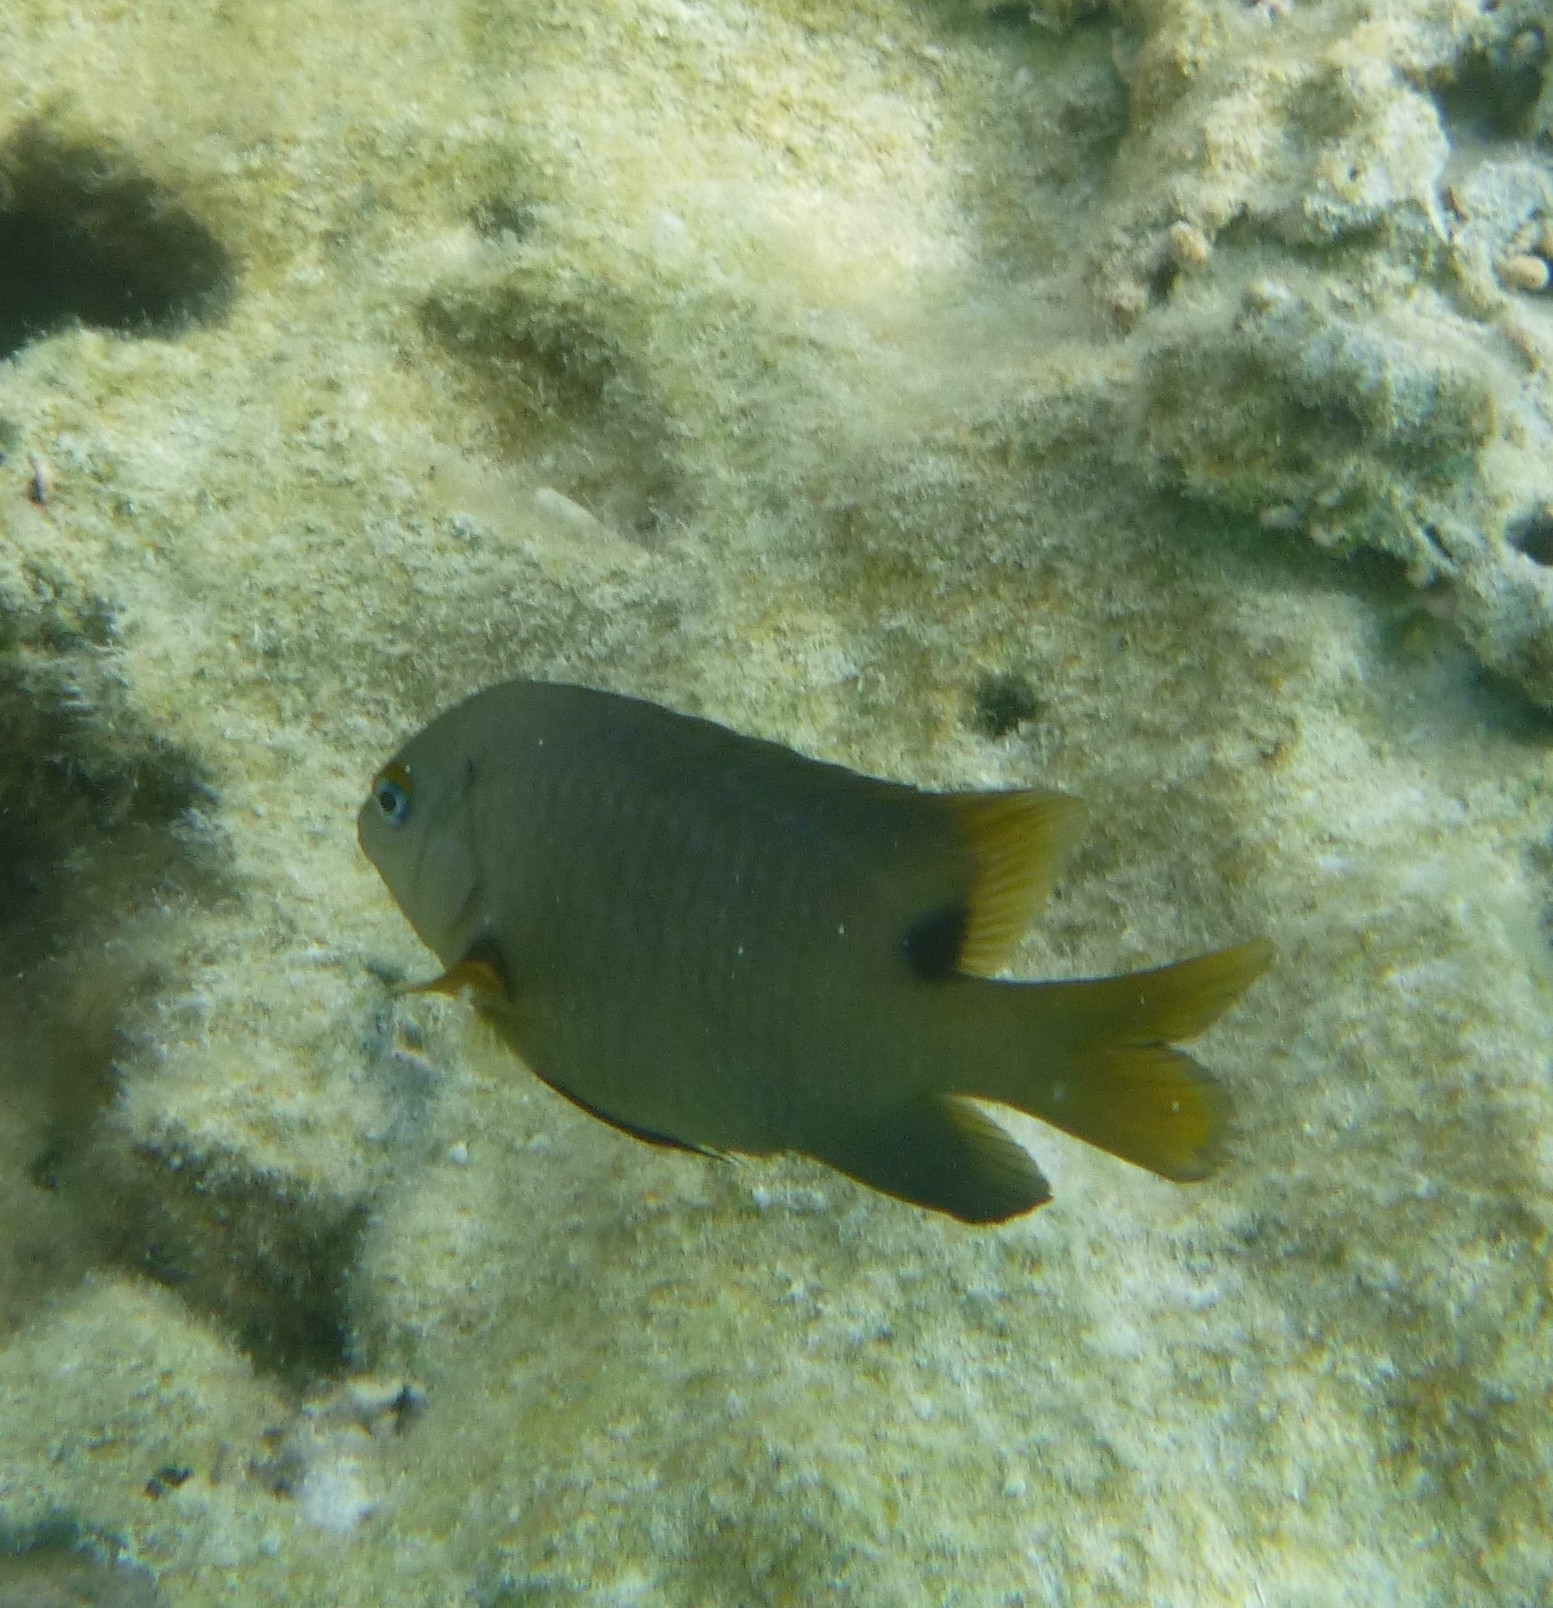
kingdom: Animalia
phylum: Chordata
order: Perciformes
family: Pomacentridae
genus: Stegastes
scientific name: Stegastes nigricans
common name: Dusky gregory
